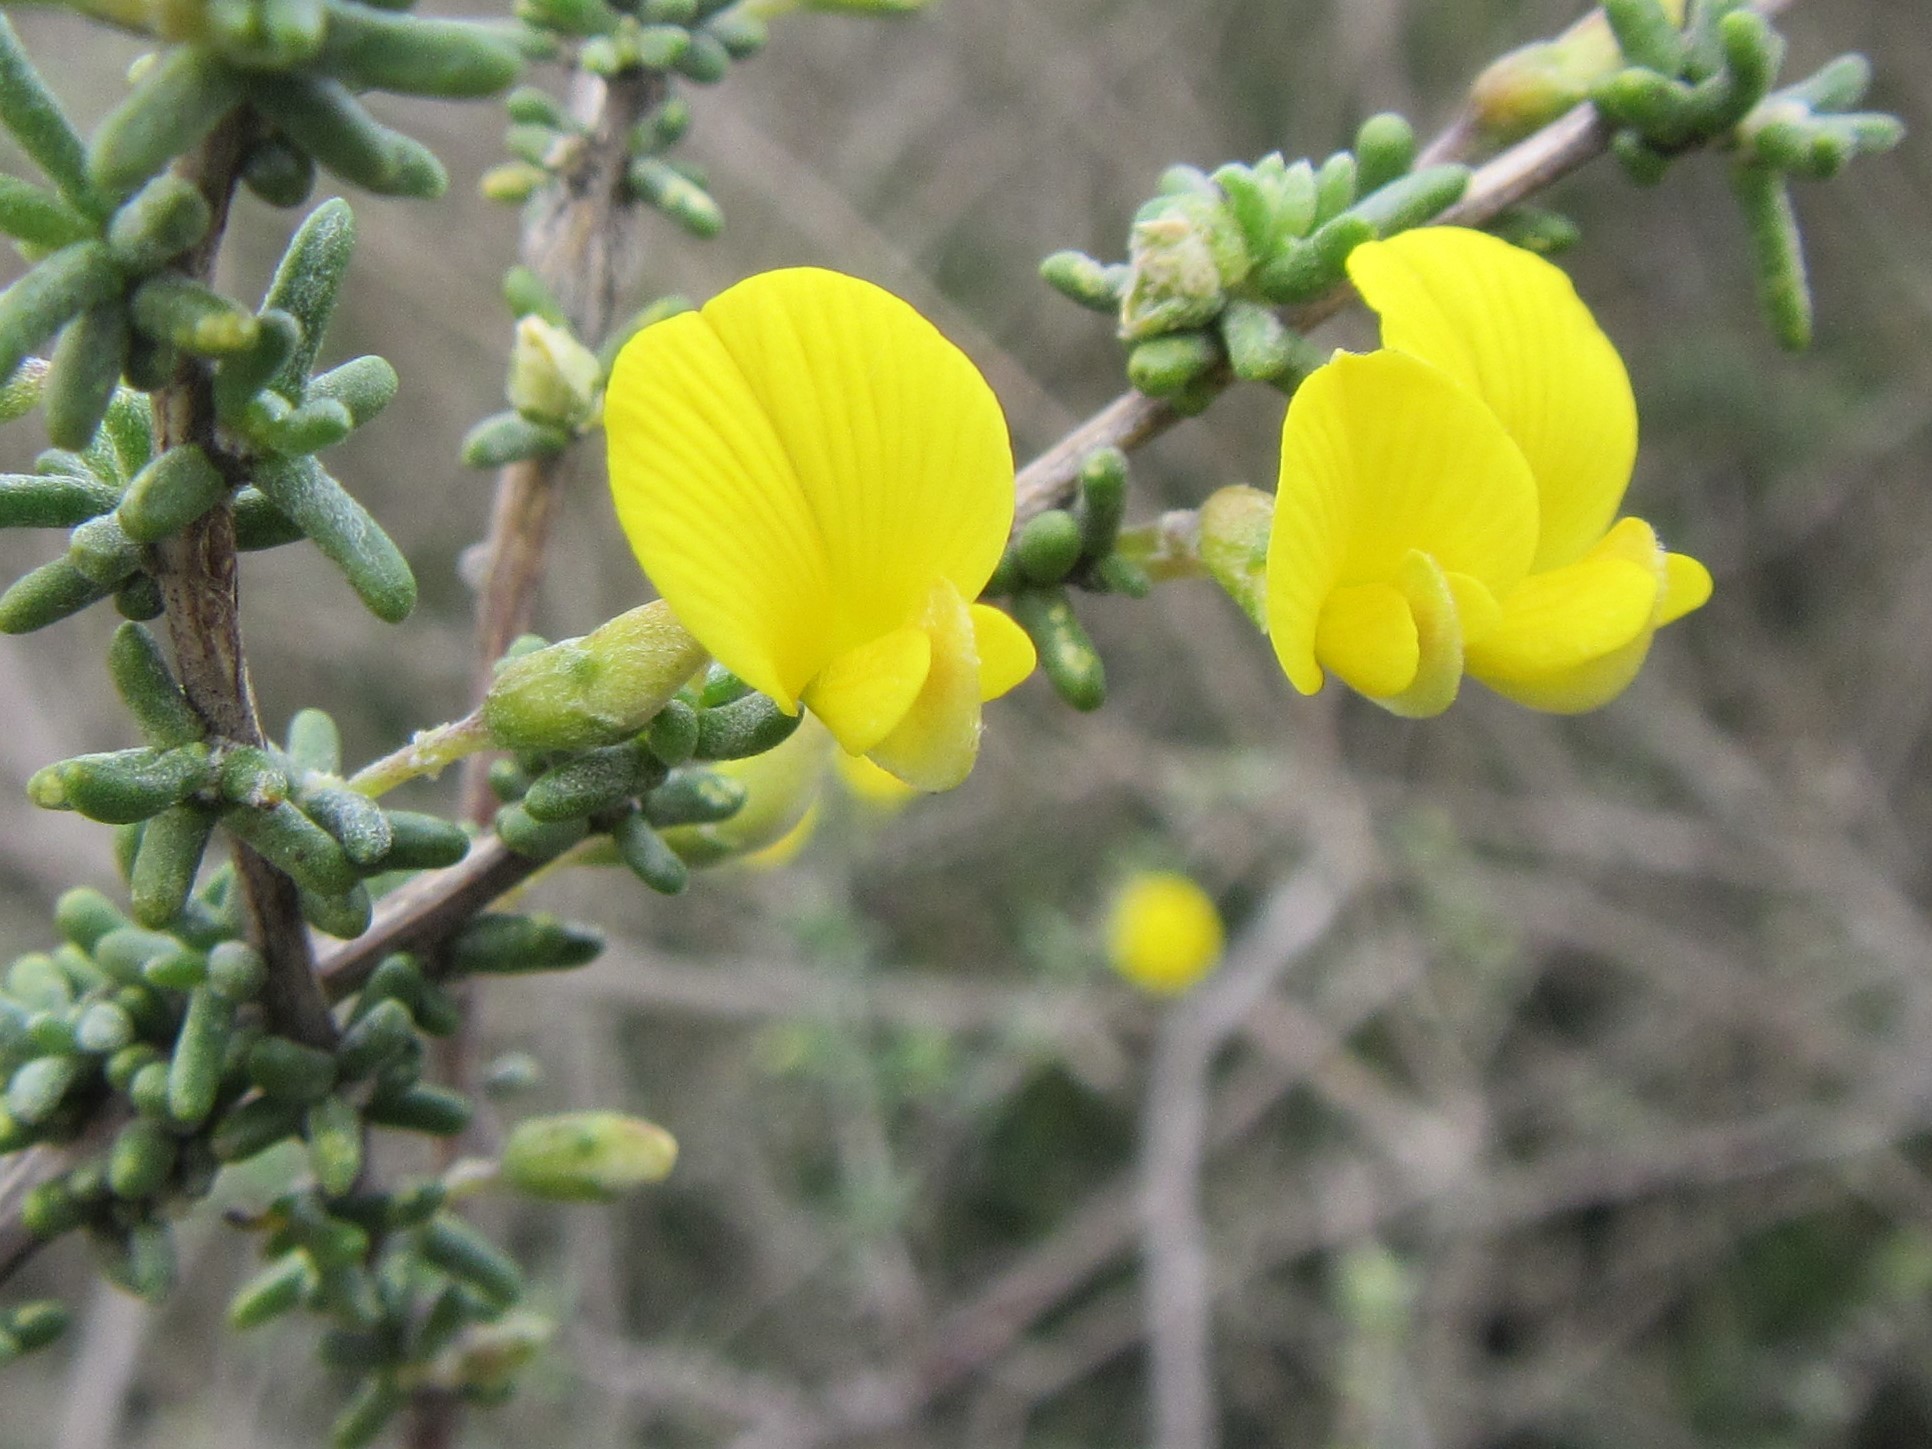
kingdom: Plantae
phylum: Tracheophyta
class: Magnoliopsida
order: Fabales
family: Fabaceae
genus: Aspalathus
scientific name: Aspalathus spinescens
